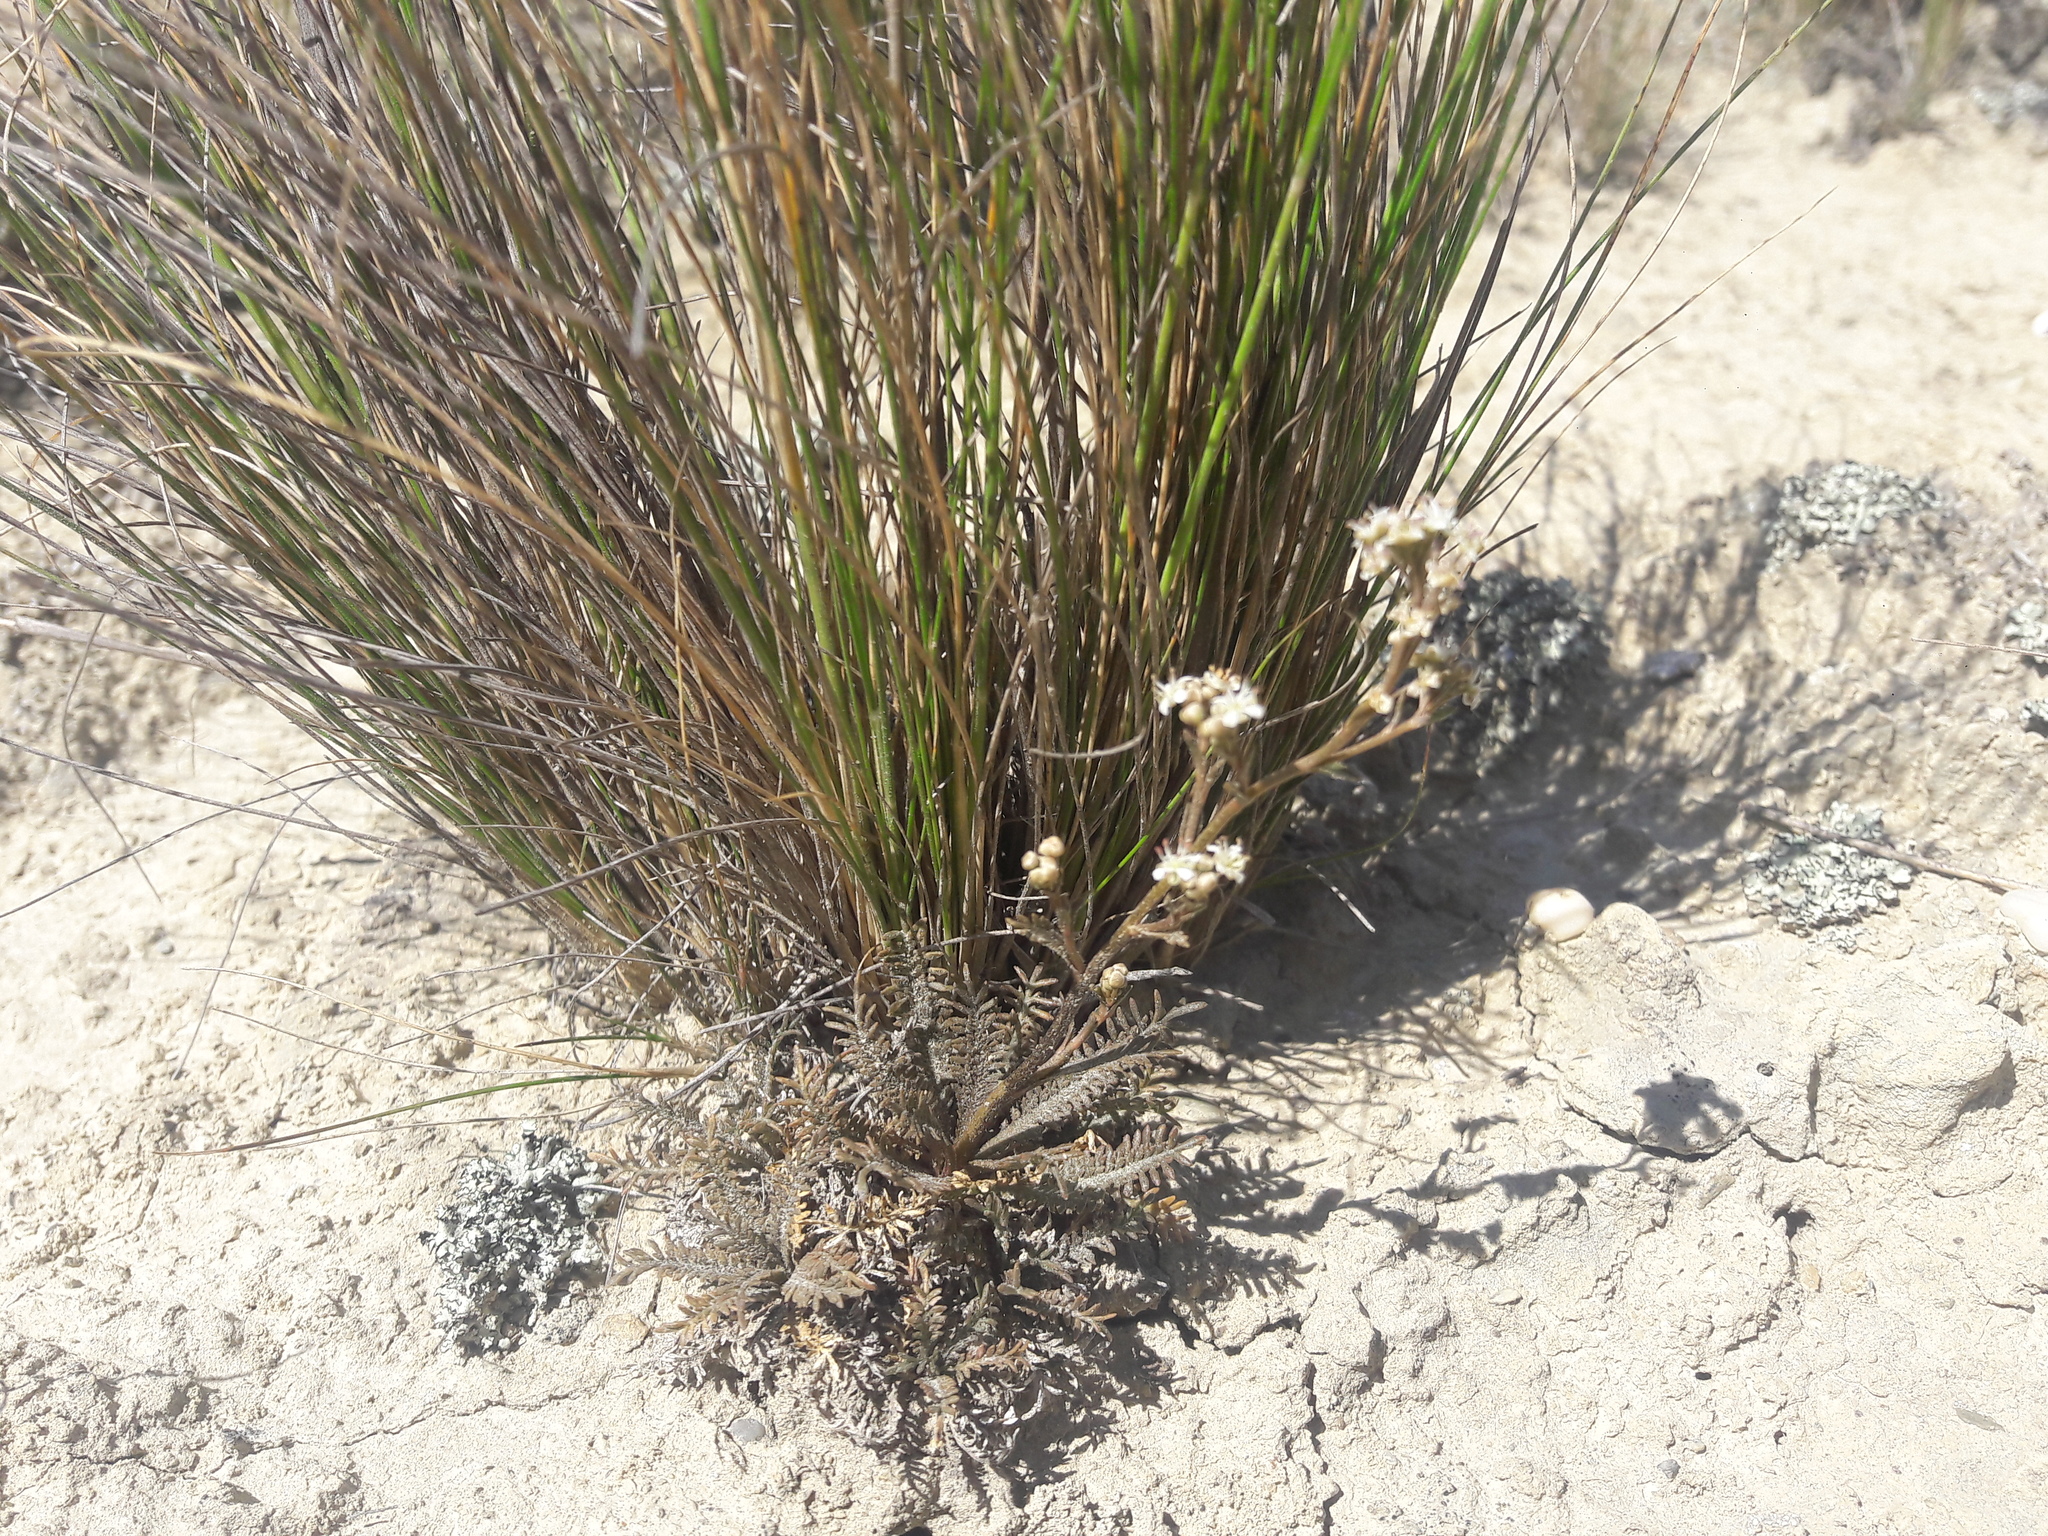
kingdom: Plantae
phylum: Tracheophyta
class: Magnoliopsida
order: Brassicales
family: Brassicaceae
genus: Lepidium
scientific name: Lepidium sisymbrioides
